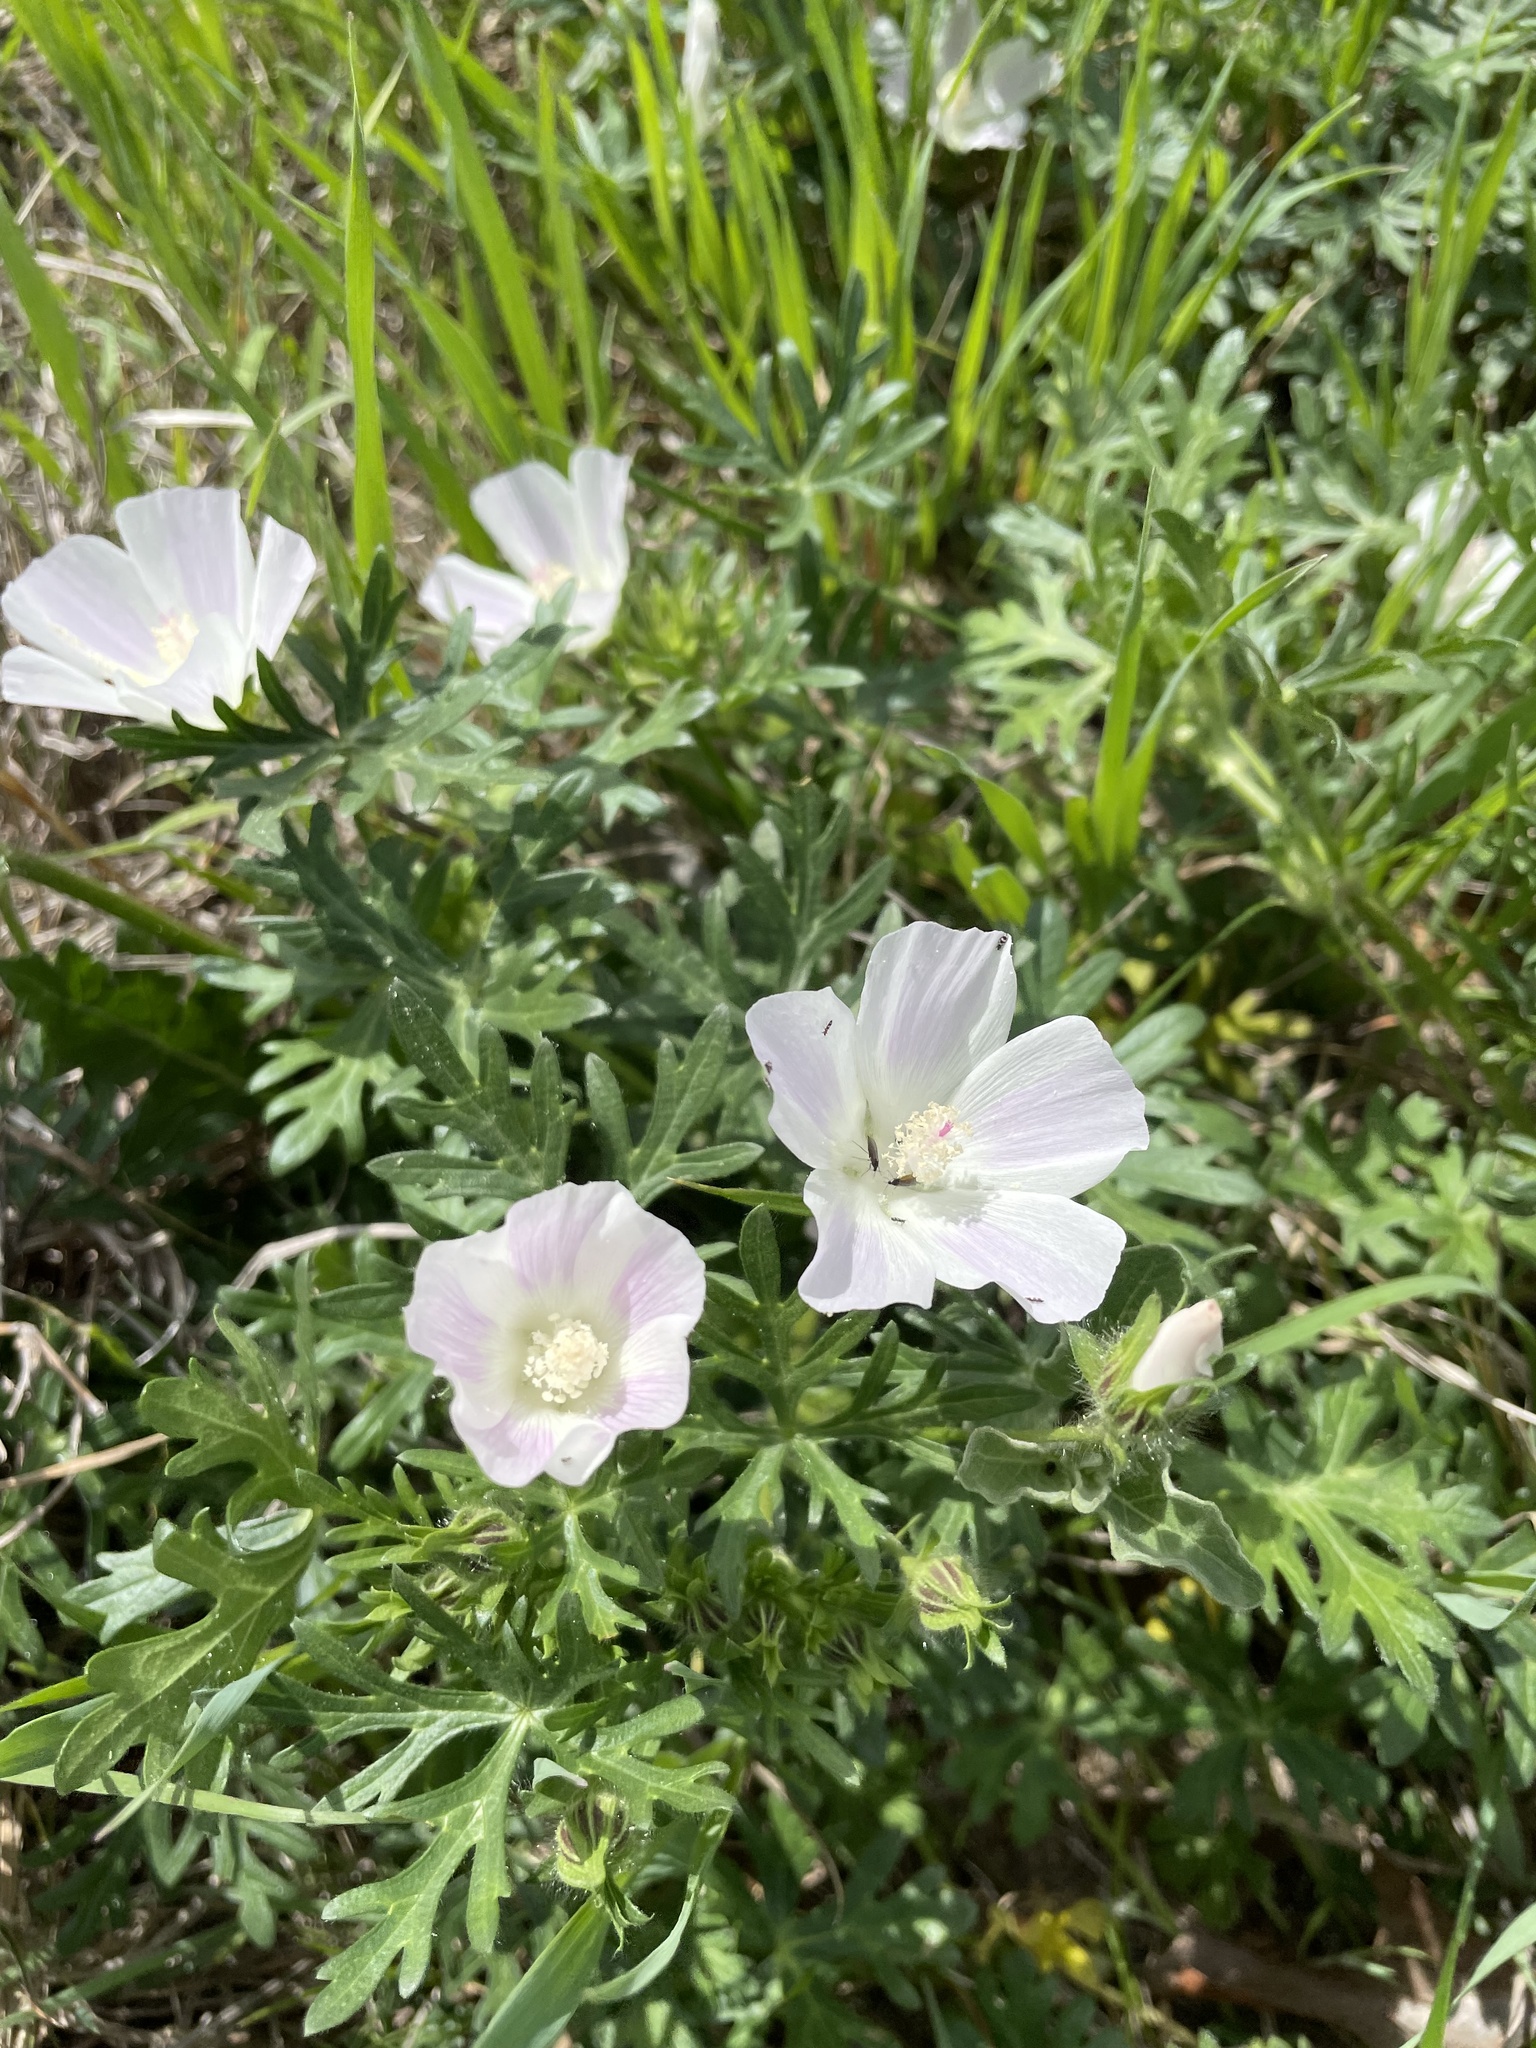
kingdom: Plantae
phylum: Tracheophyta
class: Magnoliopsida
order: Malvales
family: Malvaceae
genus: Callirhoe
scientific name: Callirhoe involucrata
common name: Purple poppy-mallow
